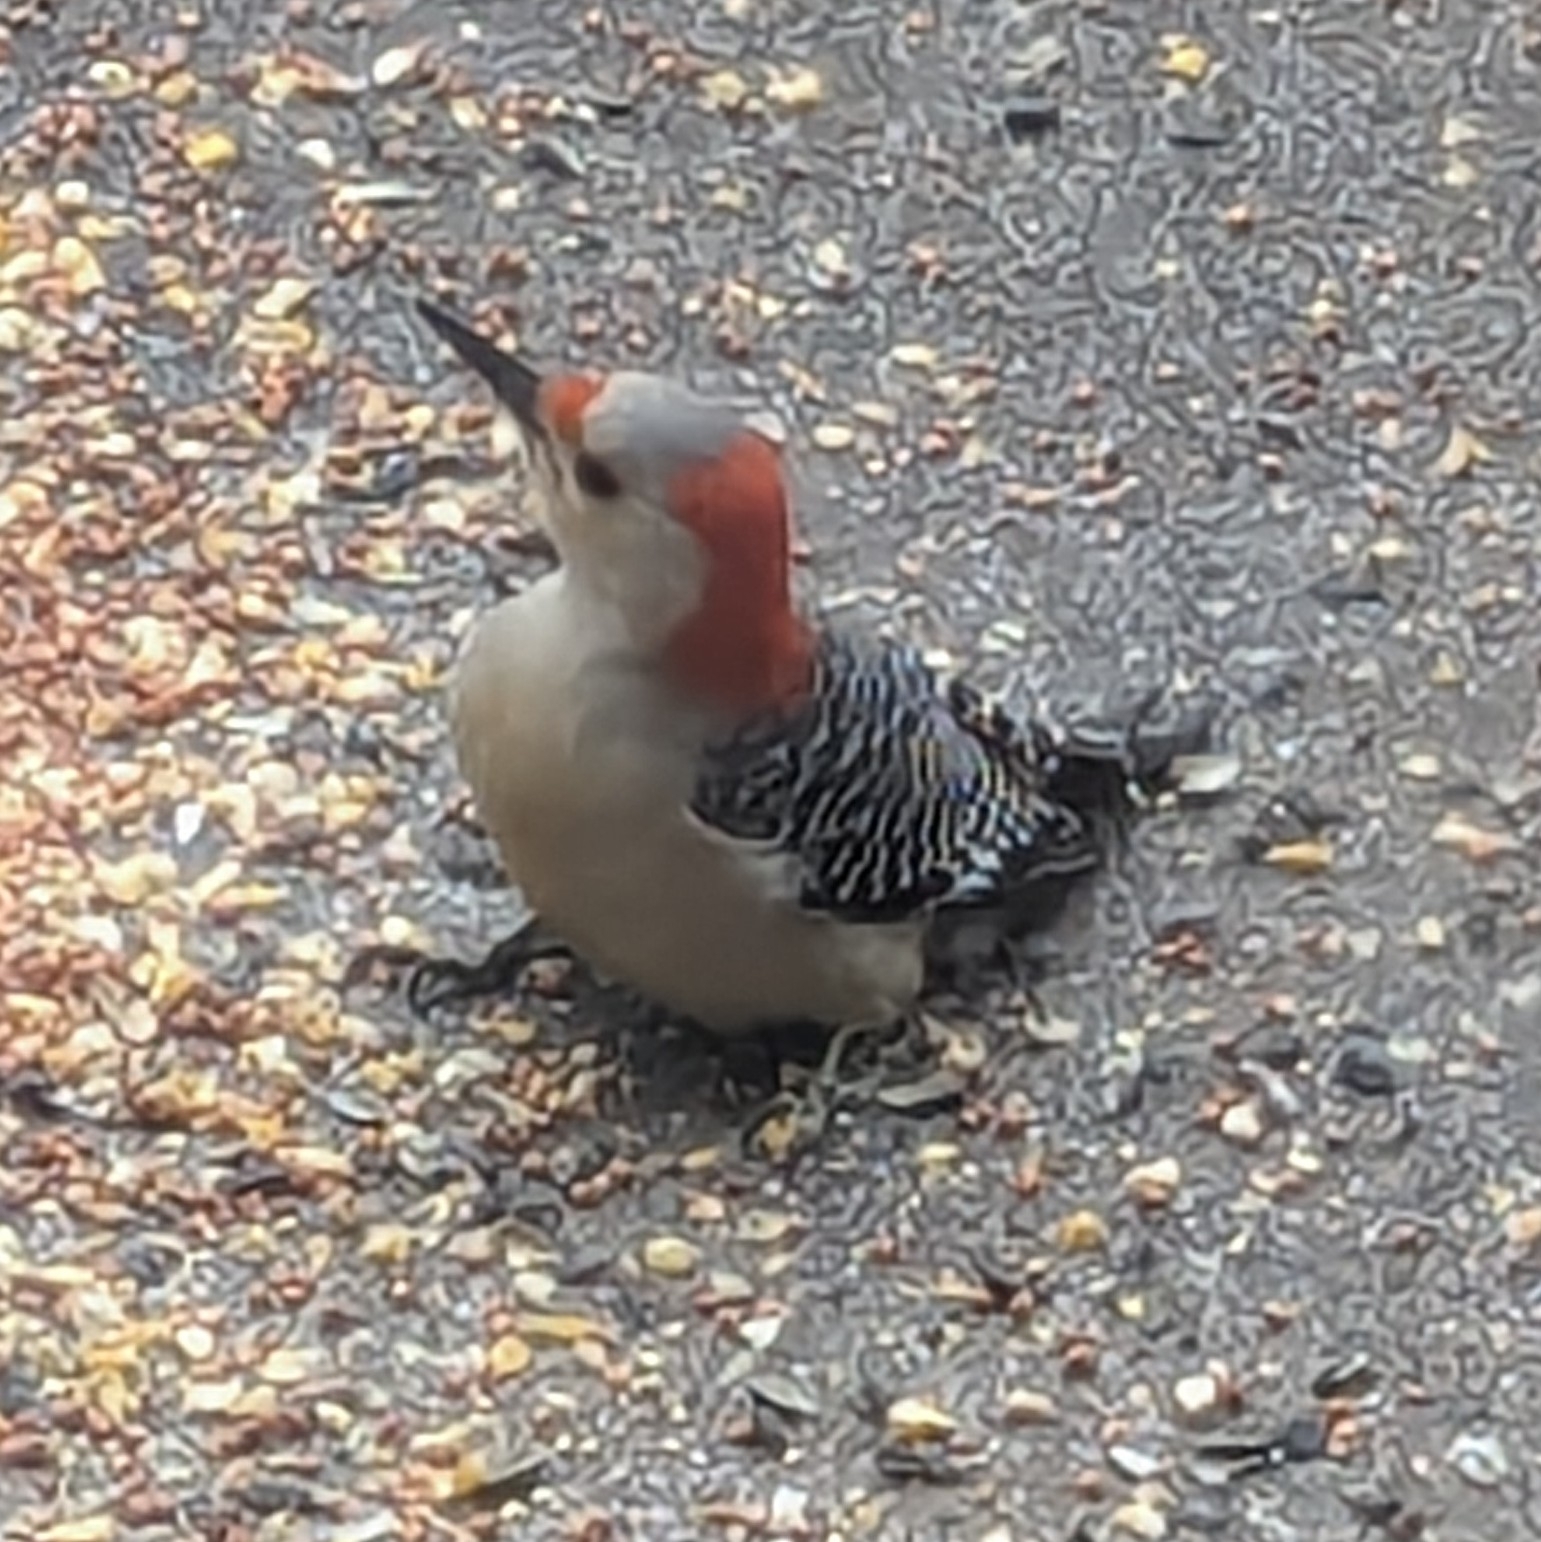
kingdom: Animalia
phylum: Chordata
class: Aves
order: Piciformes
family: Picidae
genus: Melanerpes
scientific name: Melanerpes carolinus
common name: Red-bellied woodpecker
